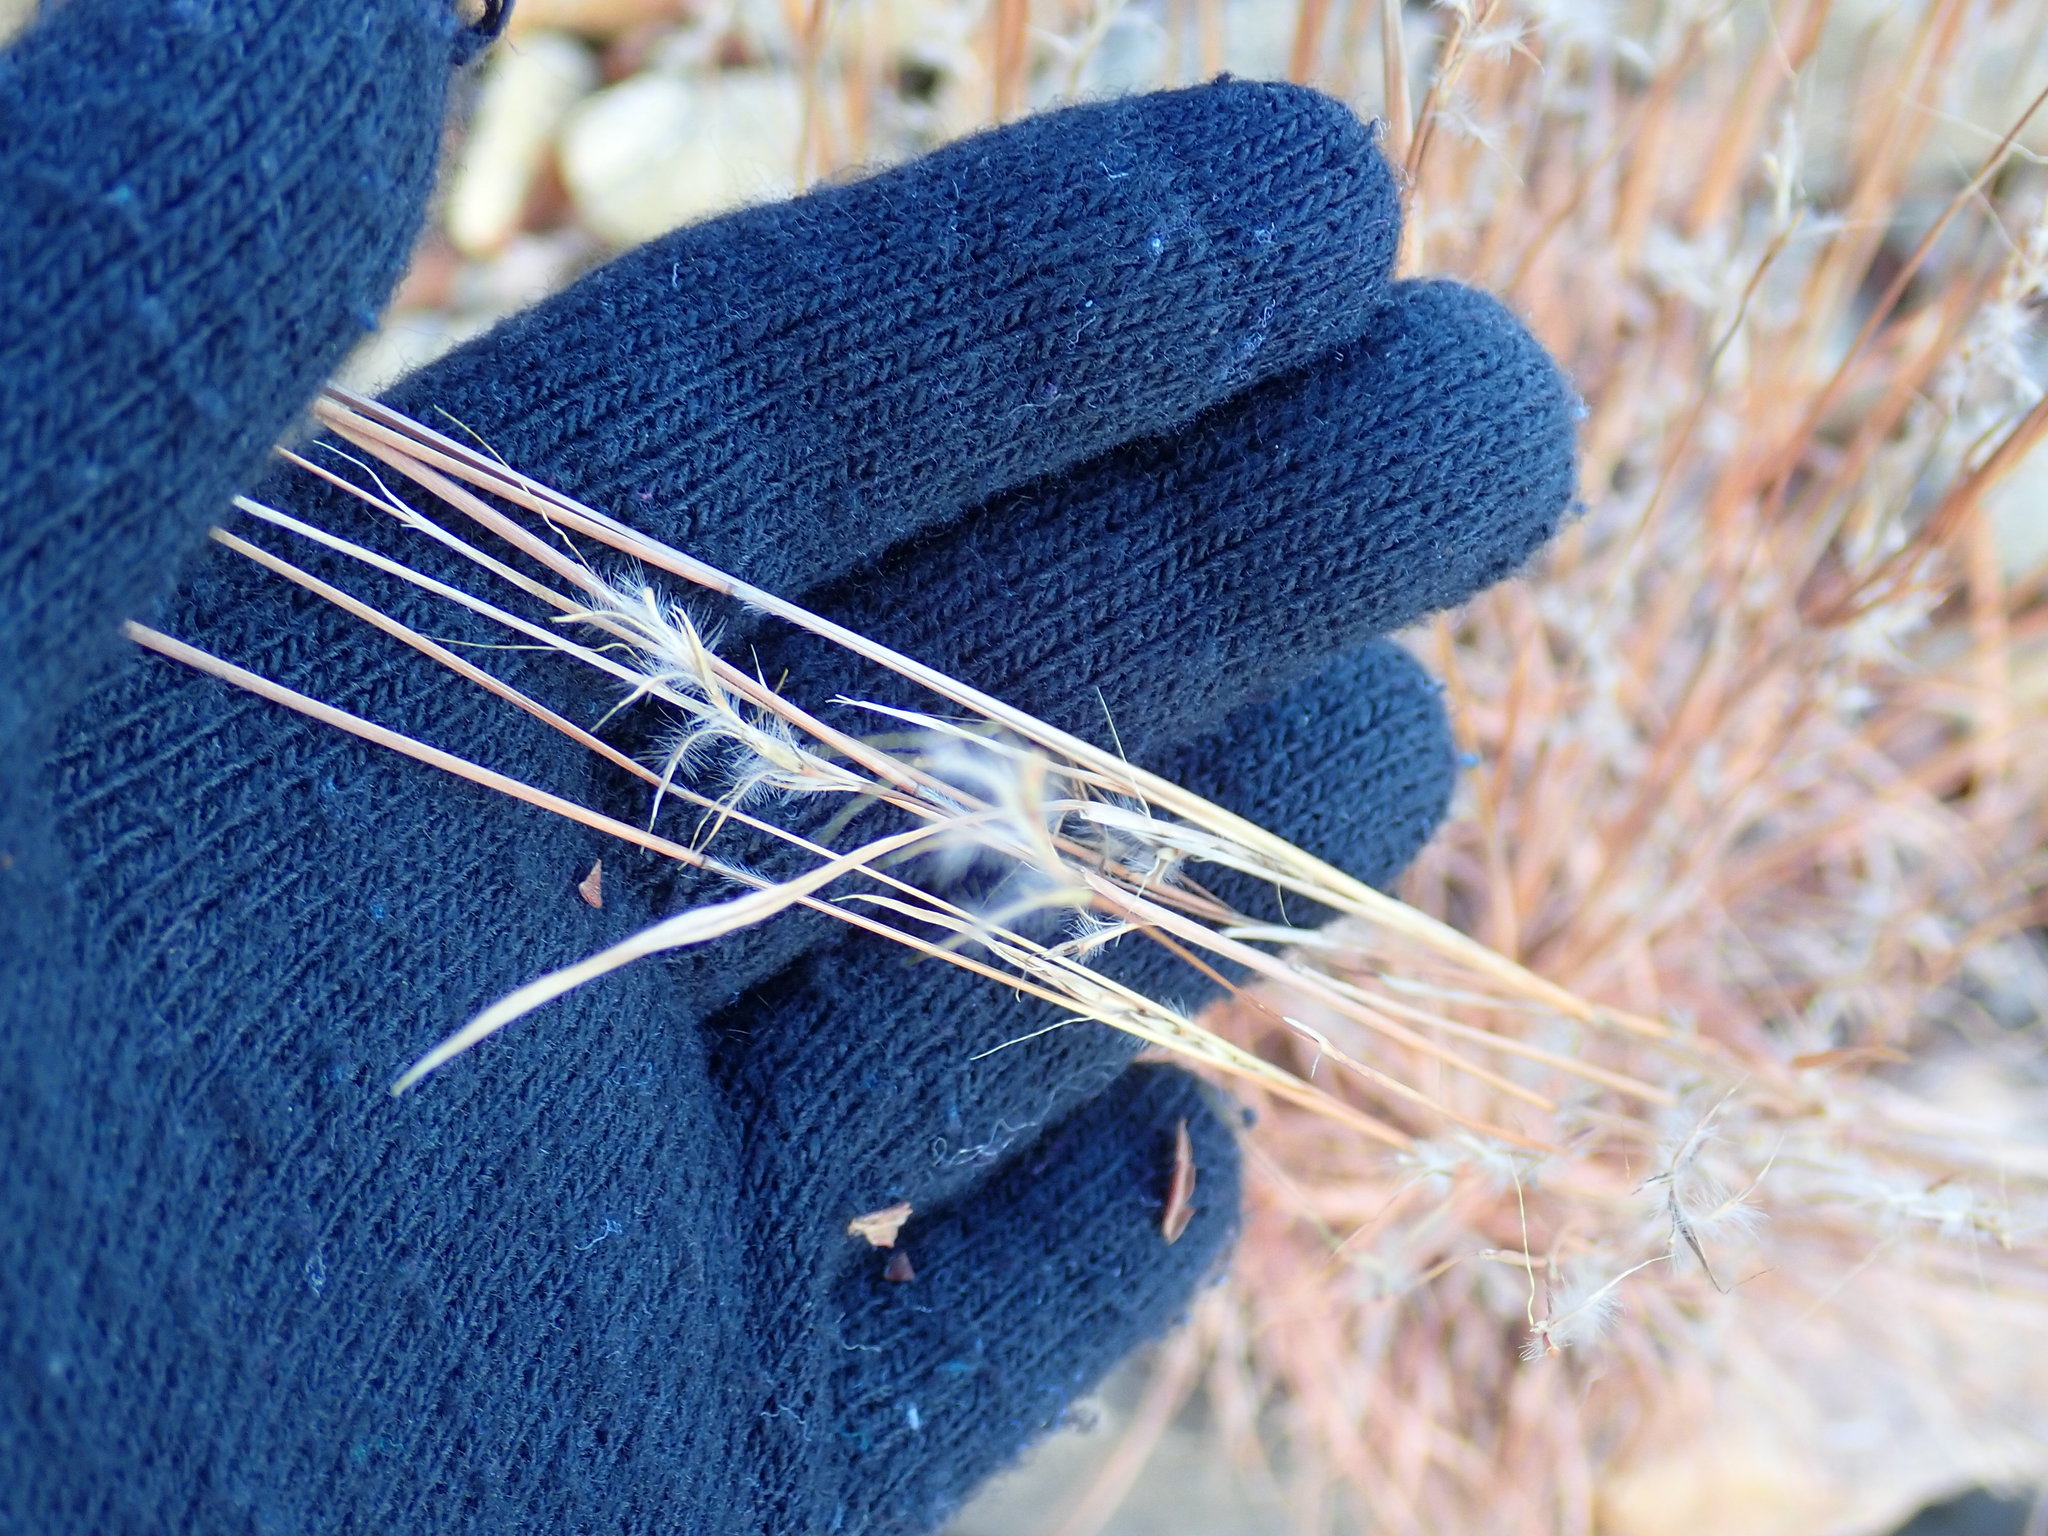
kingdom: Plantae
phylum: Tracheophyta
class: Liliopsida
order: Poales
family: Poaceae
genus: Schizachyrium
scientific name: Schizachyrium scoparium
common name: Little bluestem
